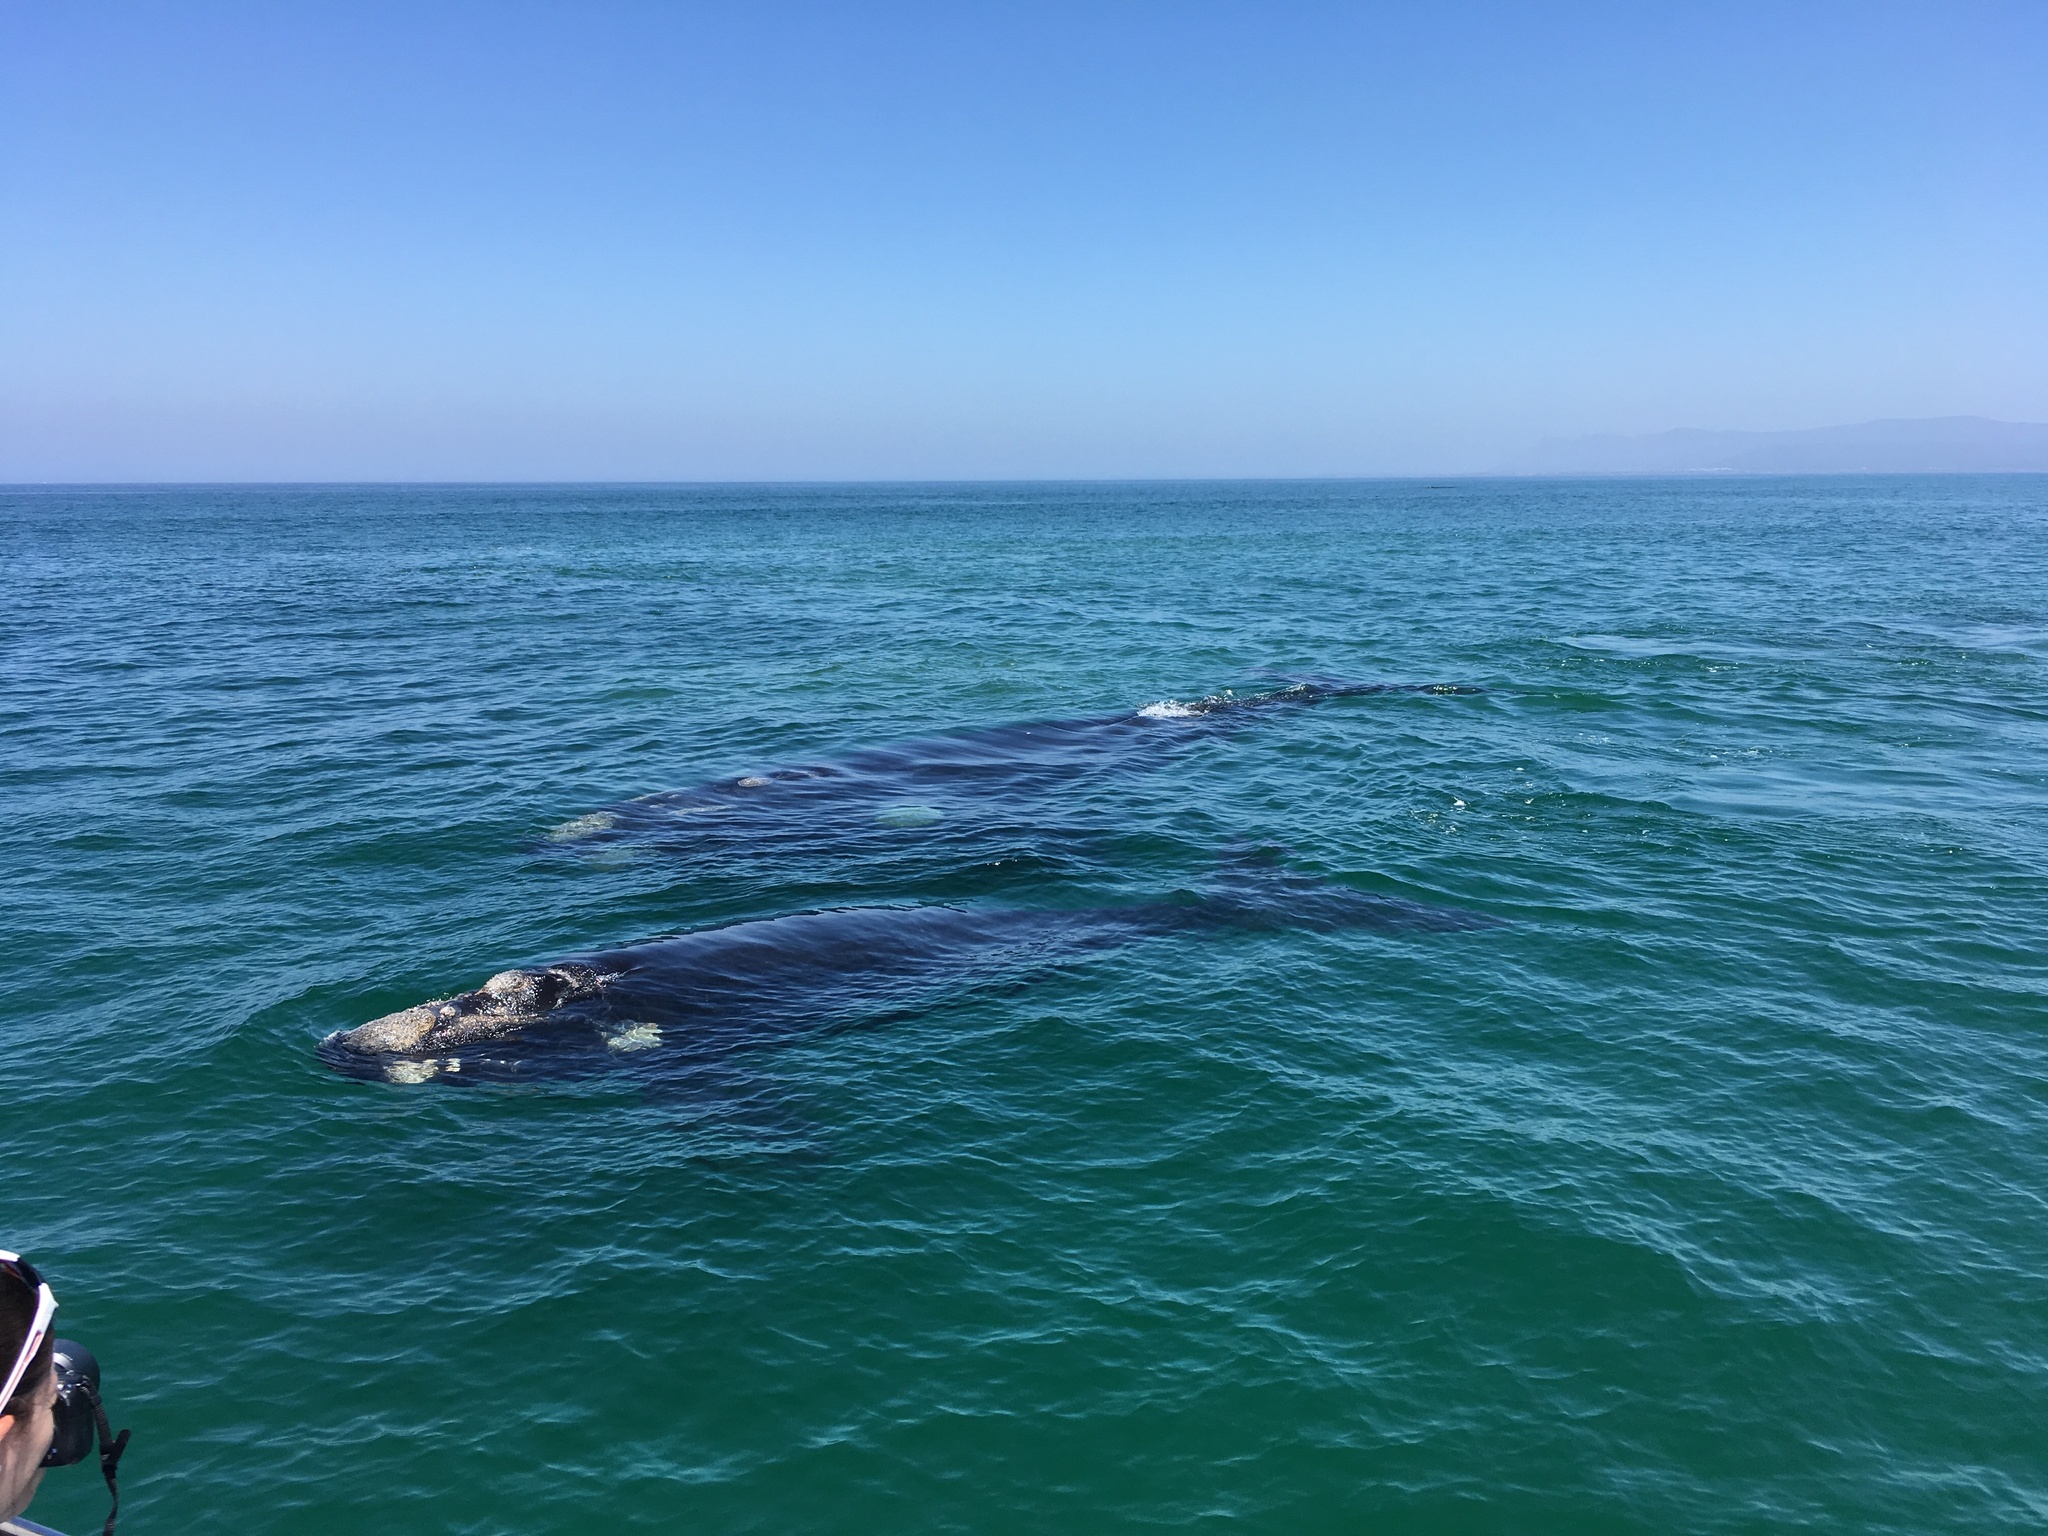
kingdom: Animalia
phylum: Chordata
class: Mammalia
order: Cetacea
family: Balaenidae
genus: Eubalaena
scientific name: Eubalaena australis
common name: Southern right whale
